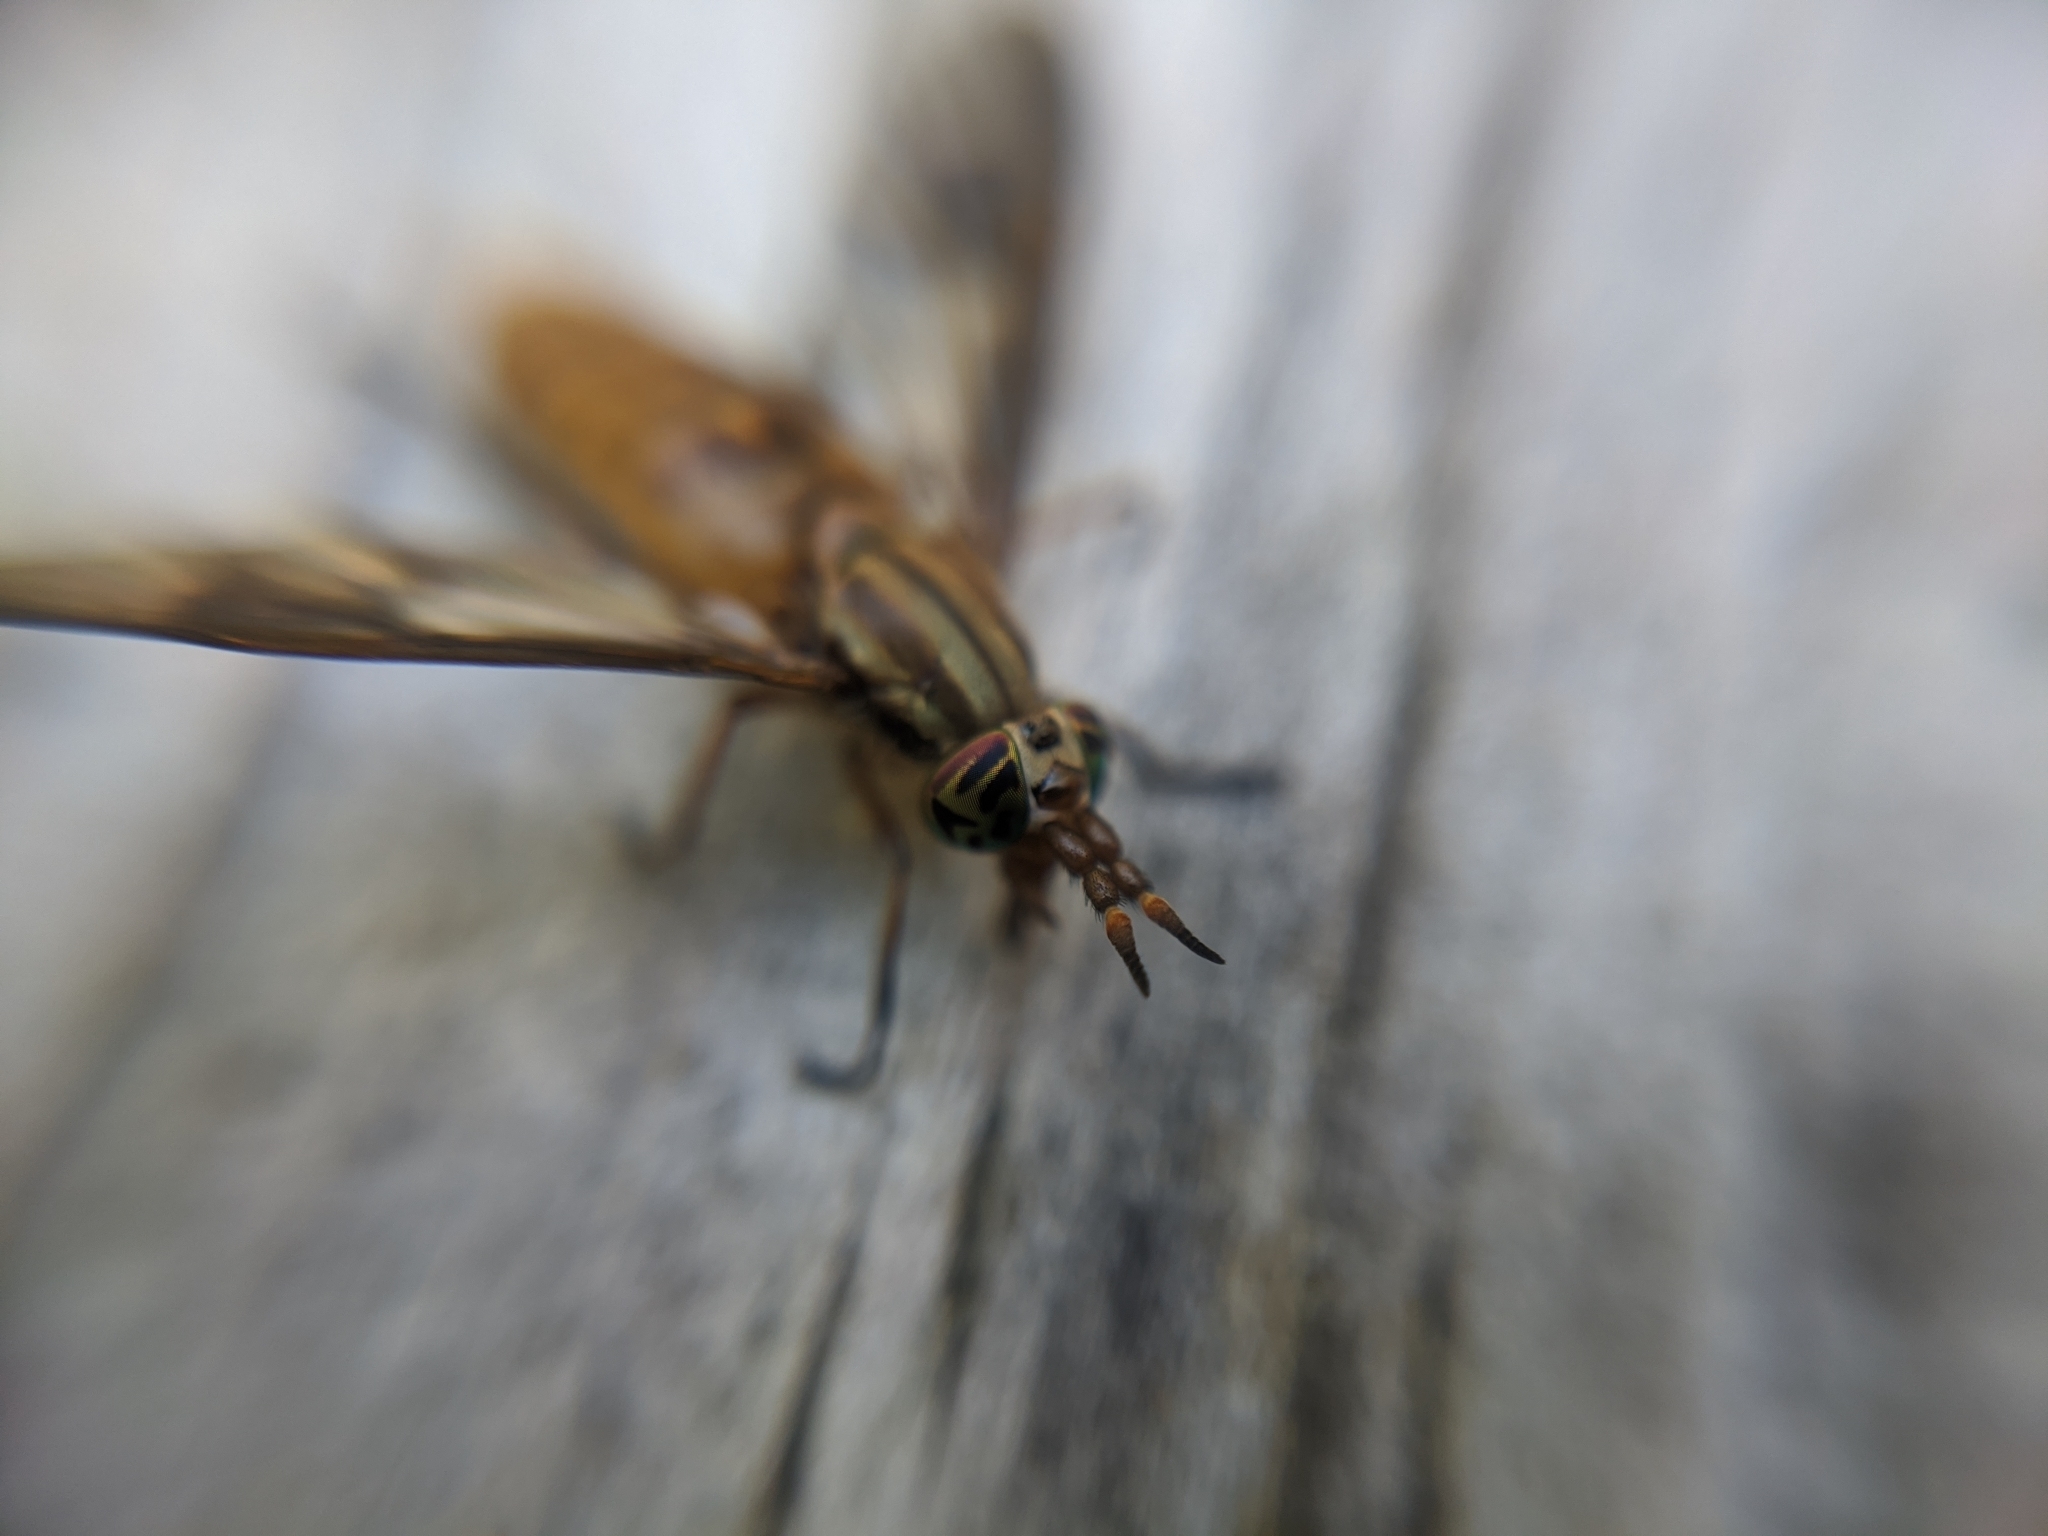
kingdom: Animalia
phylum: Arthropoda
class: Insecta
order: Diptera
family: Tabanidae
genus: Chrysops
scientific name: Chrysops brunneus
